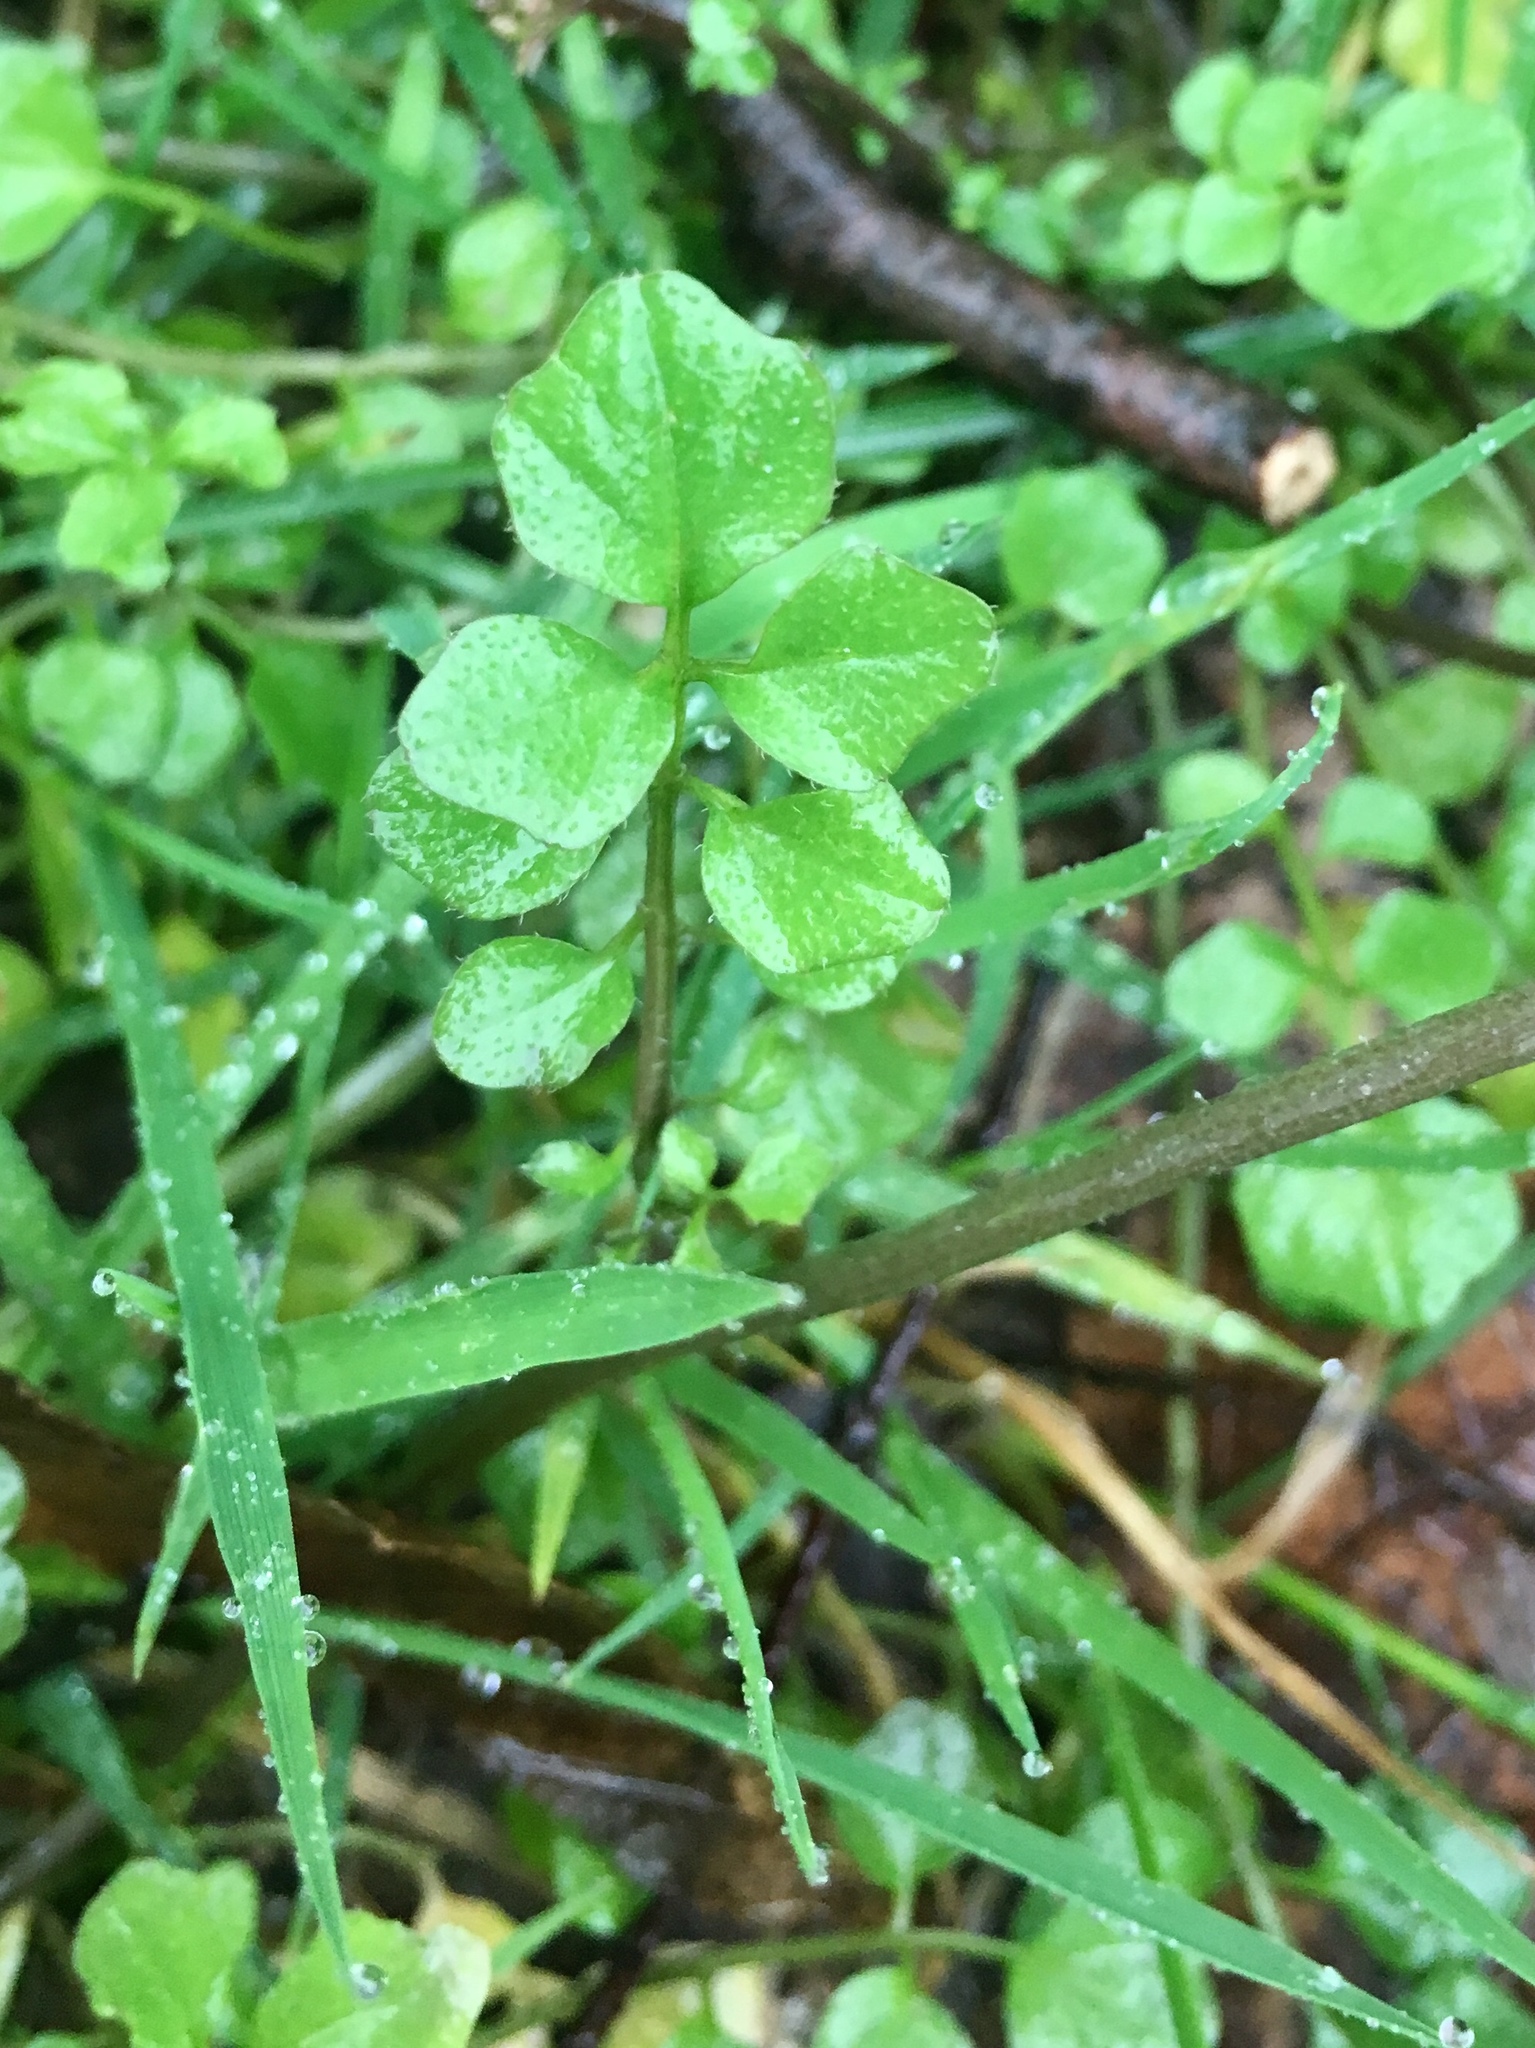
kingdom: Plantae
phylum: Tracheophyta
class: Magnoliopsida
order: Brassicales
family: Brassicaceae
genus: Cardamine
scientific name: Cardamine hirsuta
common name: Hairy bittercress
